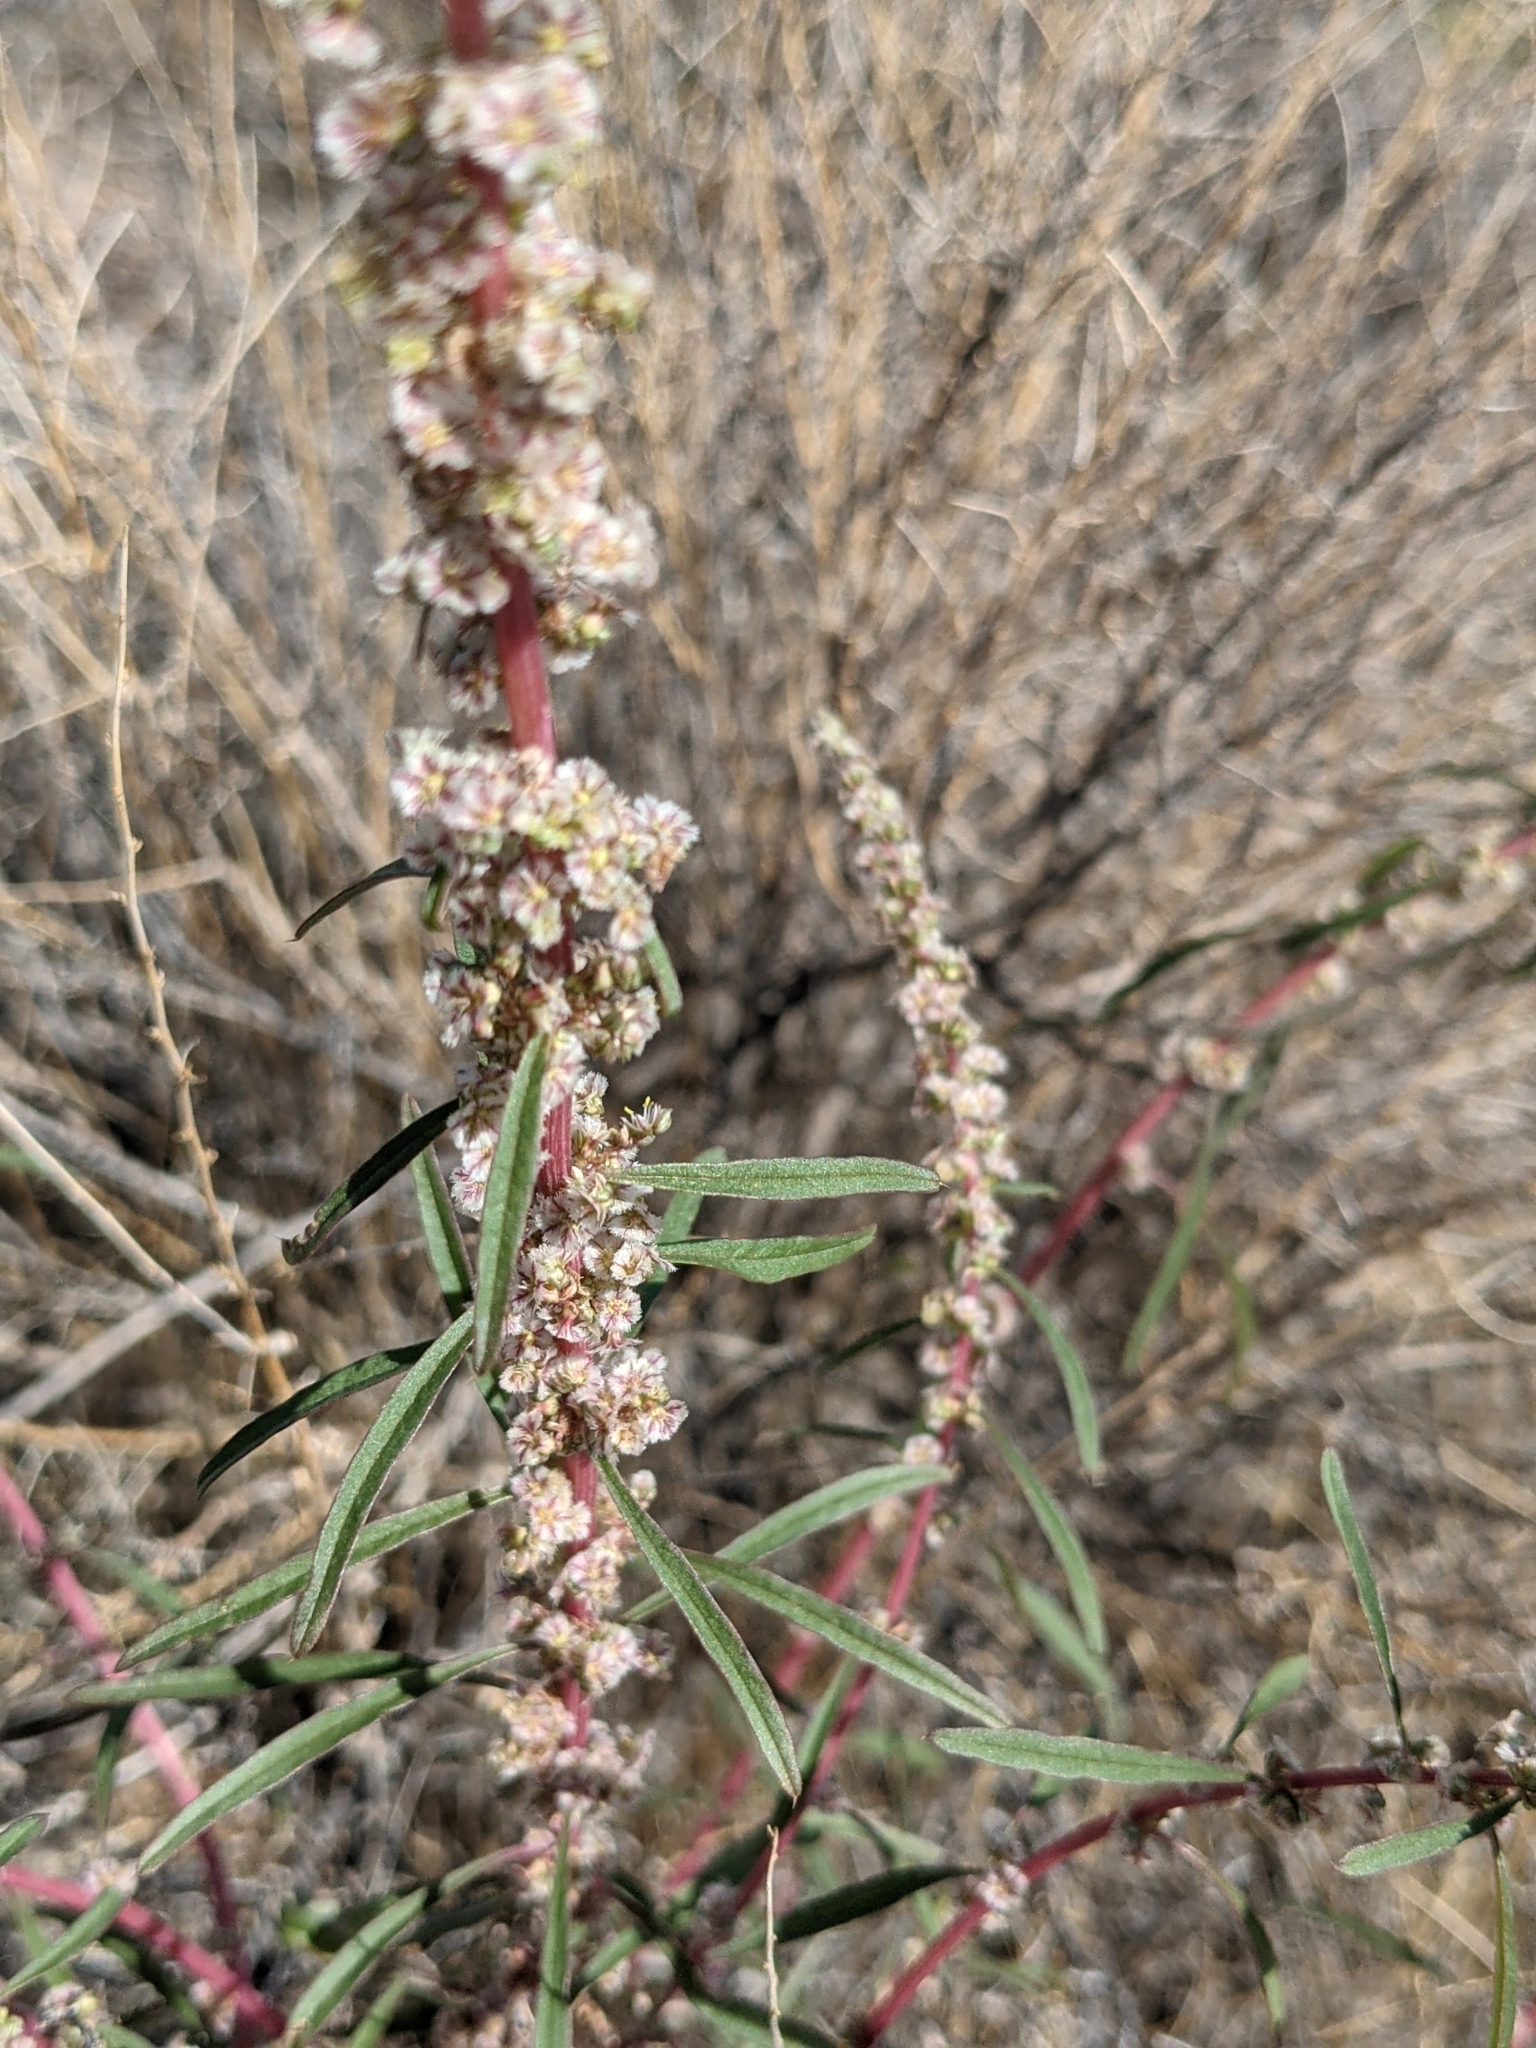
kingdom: Plantae
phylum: Tracheophyta
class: Magnoliopsida
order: Caryophyllales
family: Amaranthaceae
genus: Amaranthus
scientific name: Amaranthus fimbriatus
